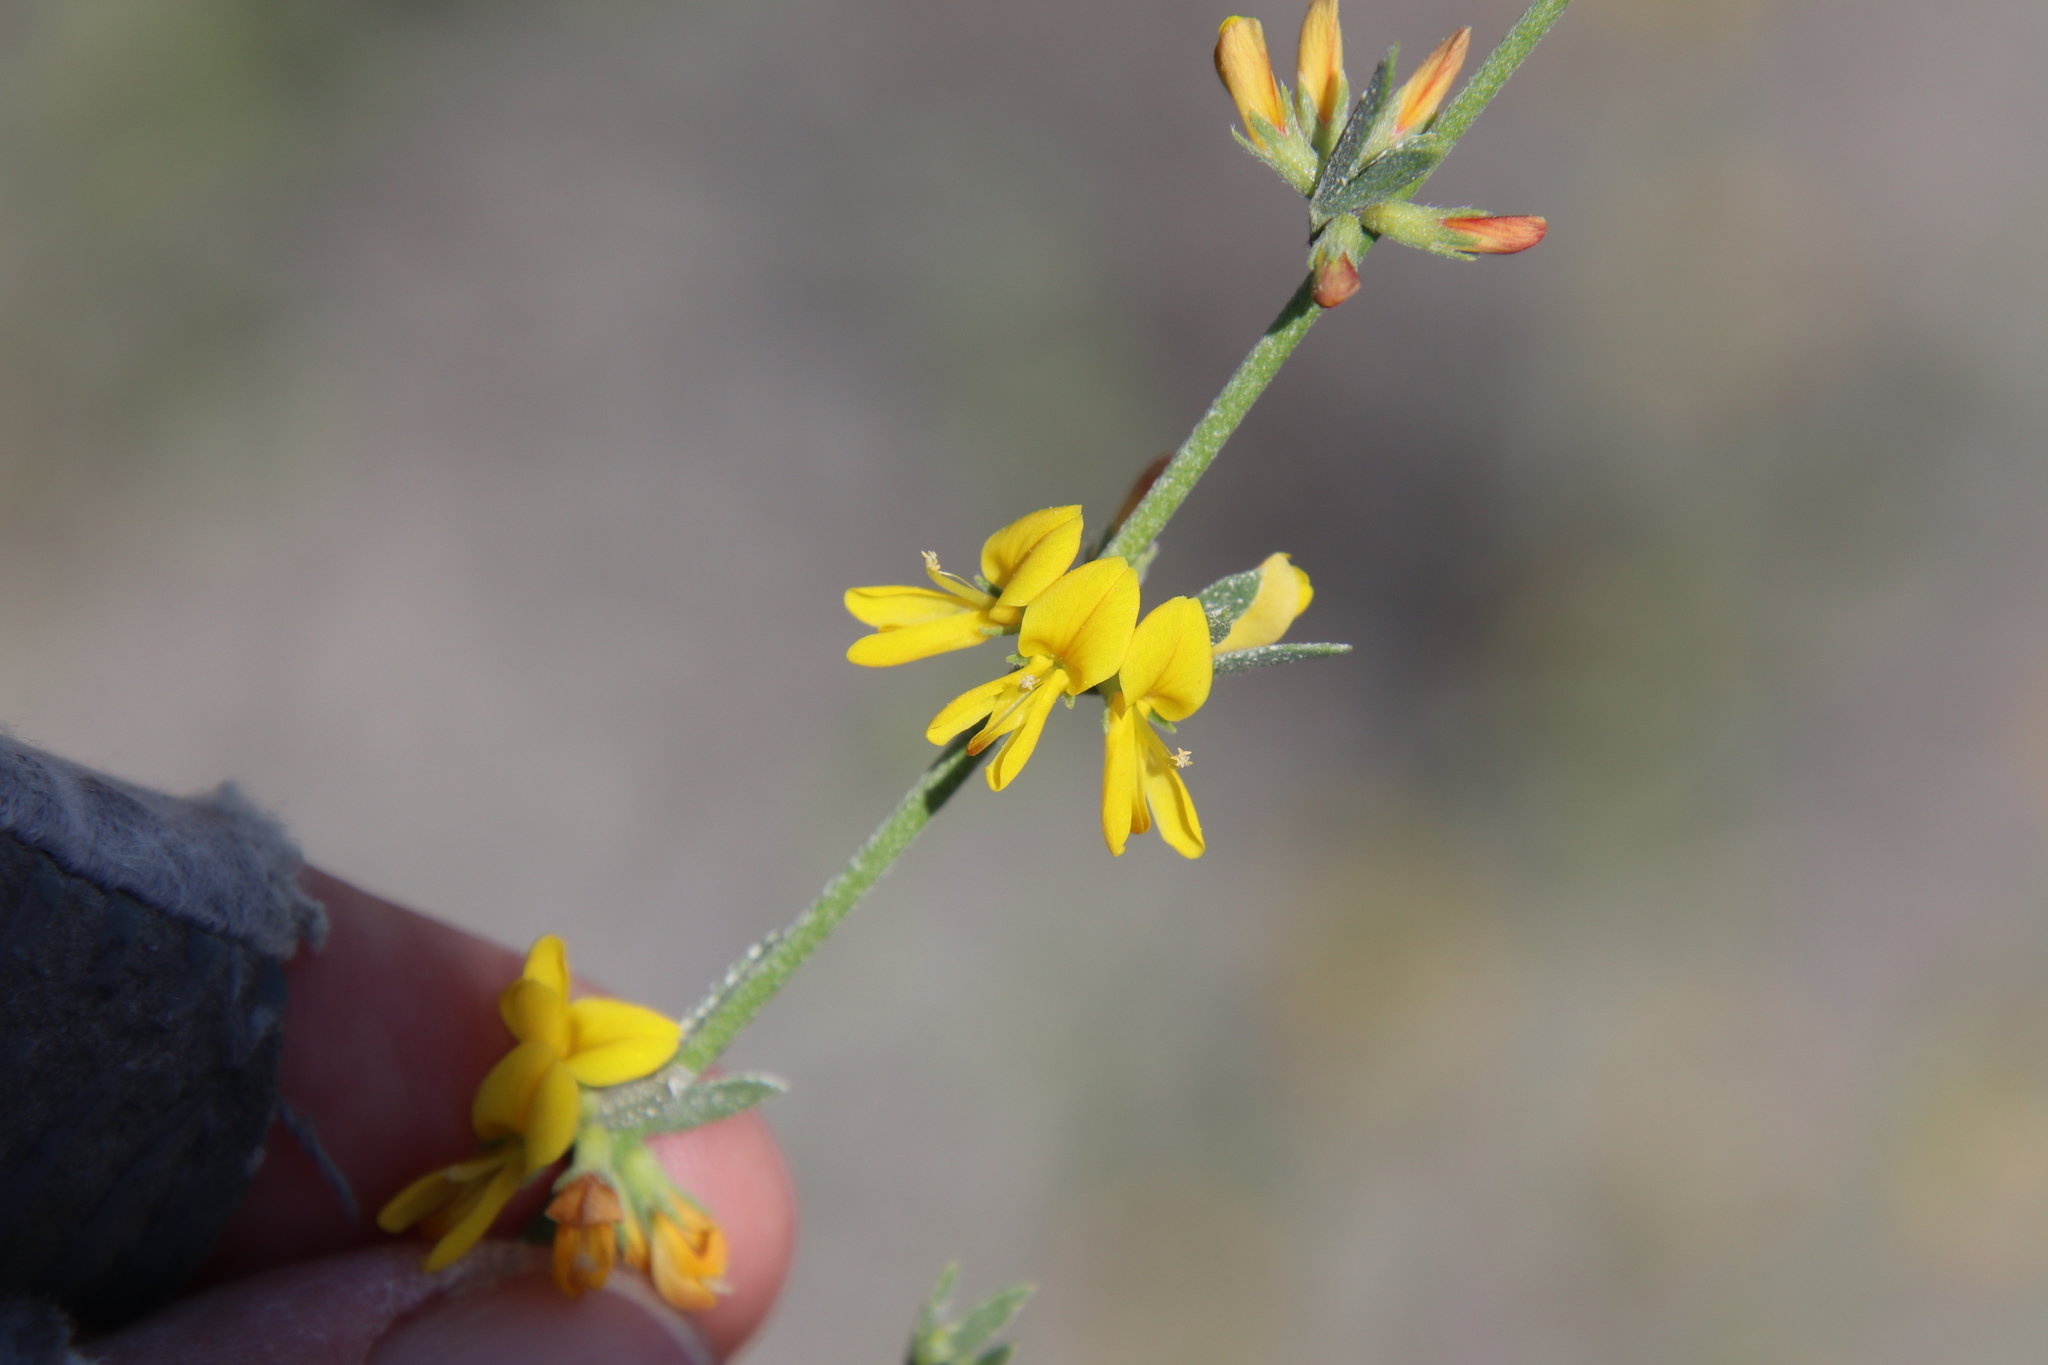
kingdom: Plantae
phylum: Tracheophyta
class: Magnoliopsida
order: Fabales
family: Fabaceae
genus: Acmispon
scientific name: Acmispon glaber
